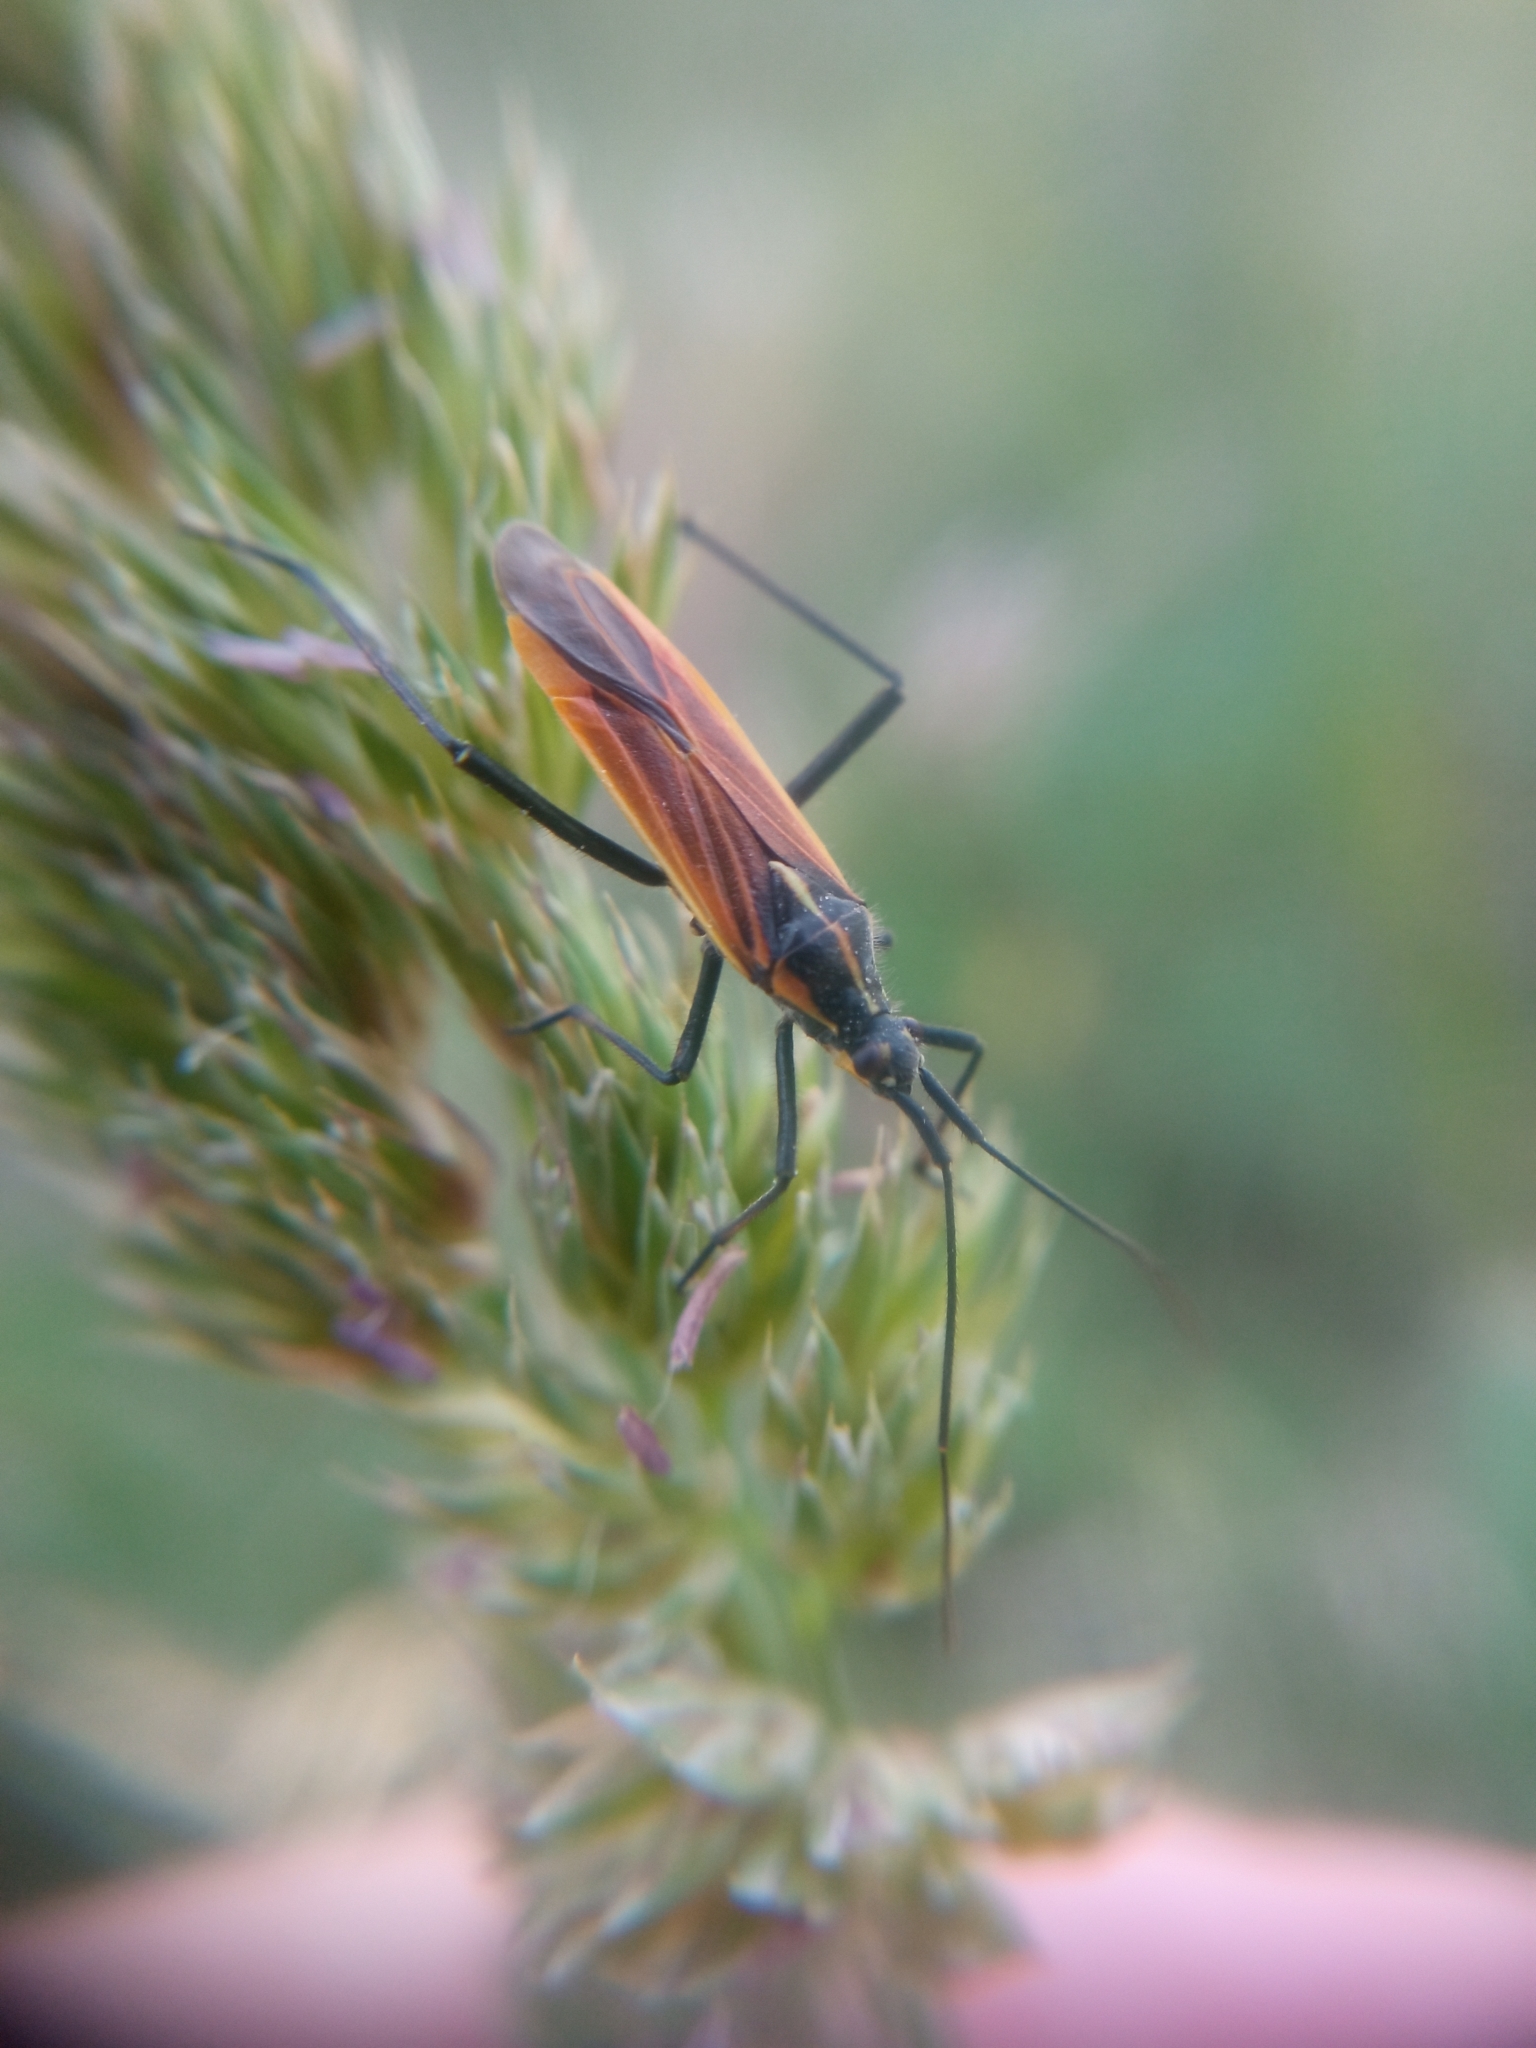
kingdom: Animalia
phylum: Arthropoda
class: Insecta
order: Hemiptera
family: Miridae
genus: Leptopterna
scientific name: Leptopterna dolabrata
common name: Meadow plant bug
